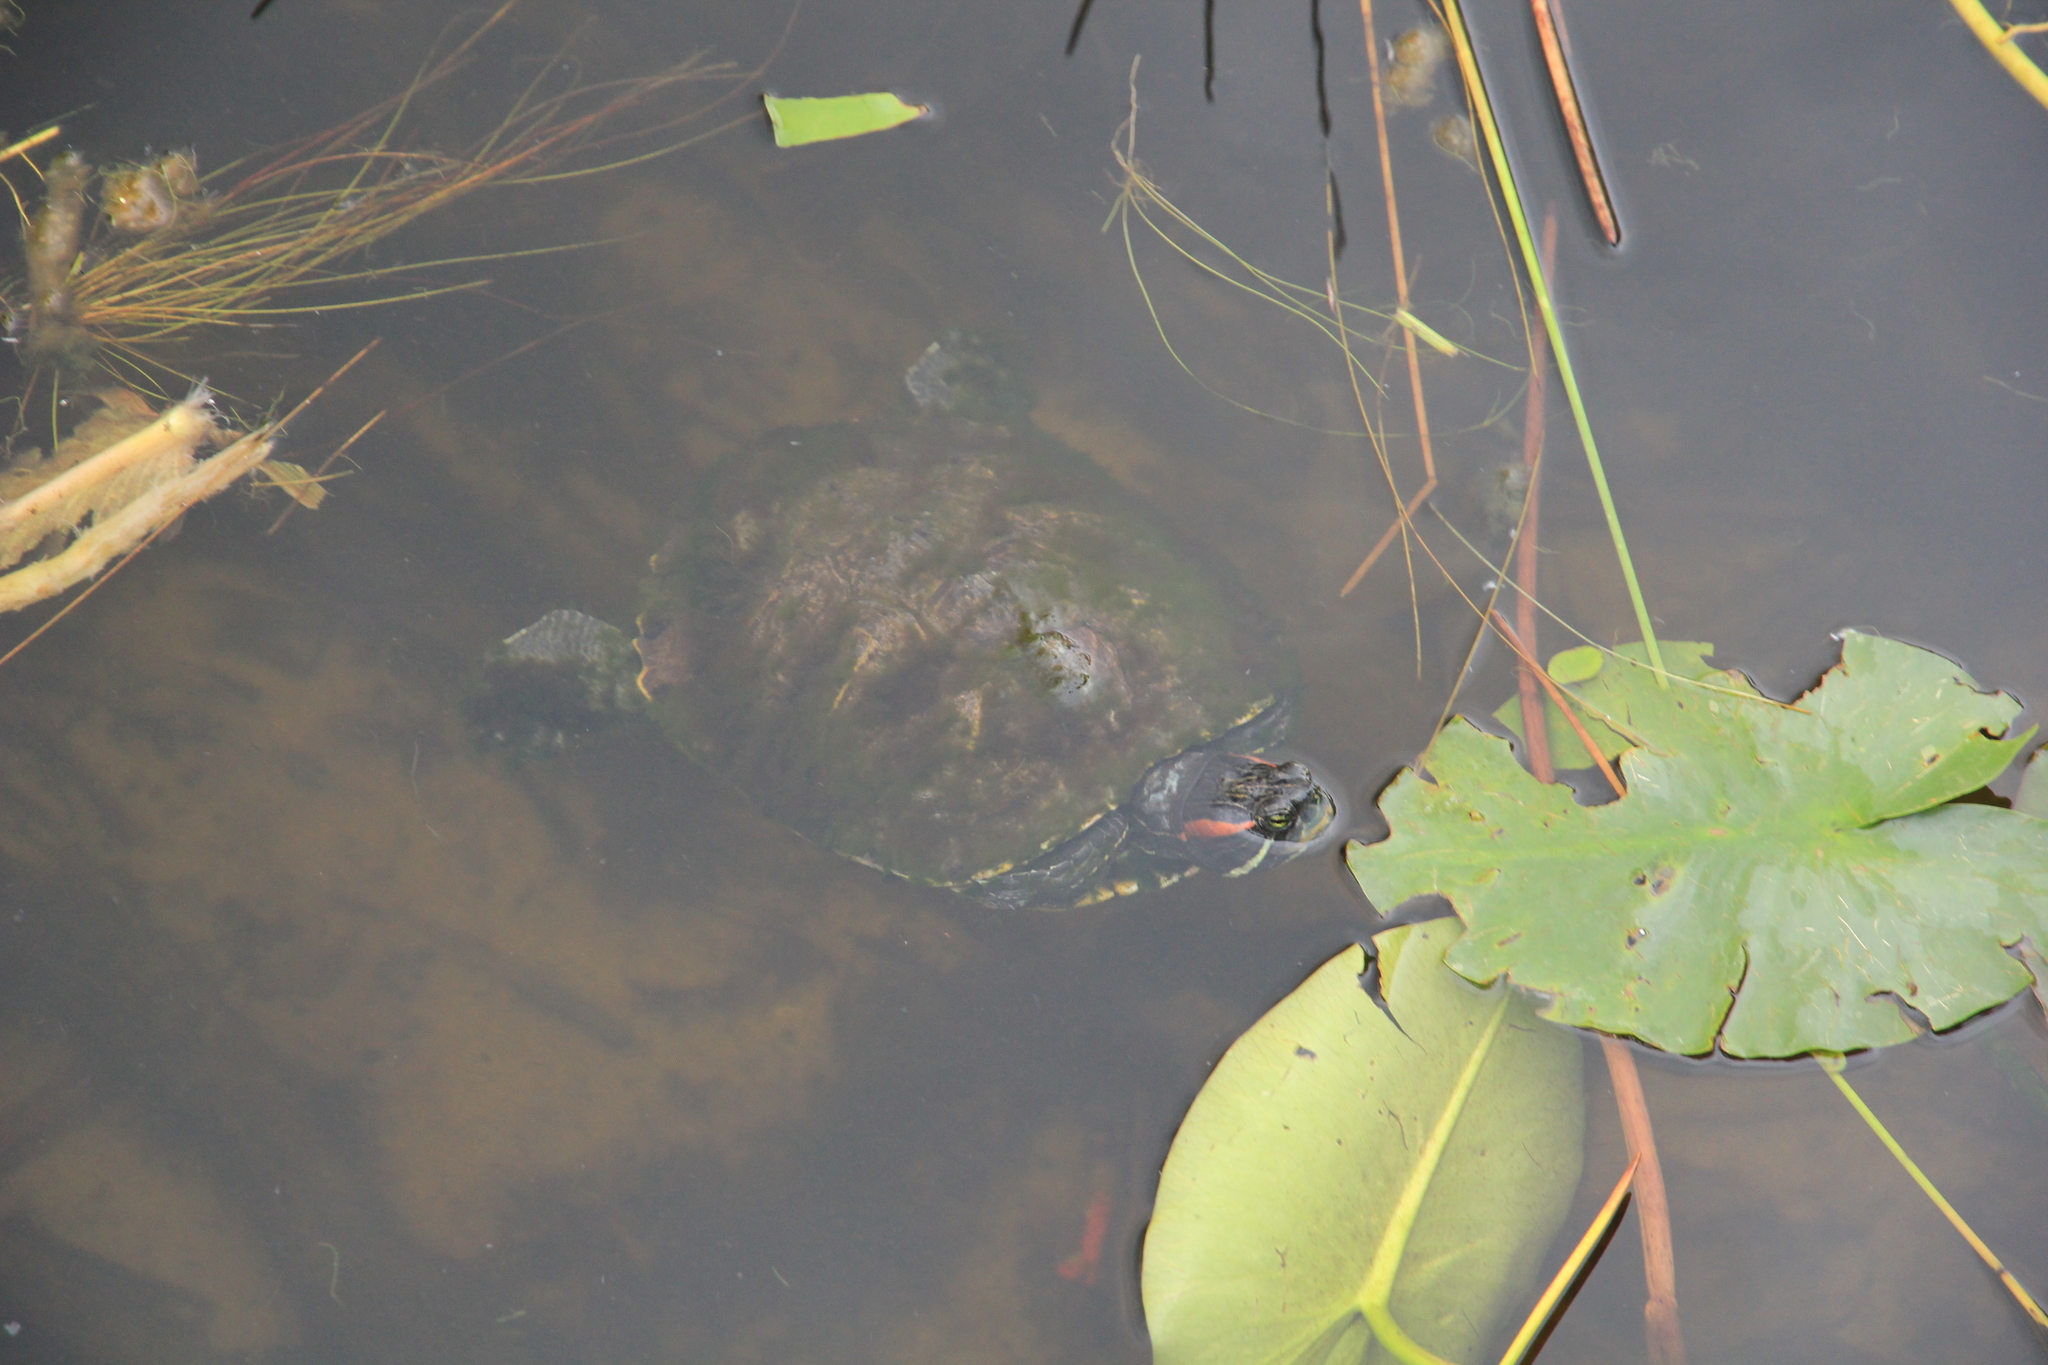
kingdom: Animalia
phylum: Chordata
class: Testudines
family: Emydidae
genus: Trachemys
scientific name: Trachemys scripta
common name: Slider
